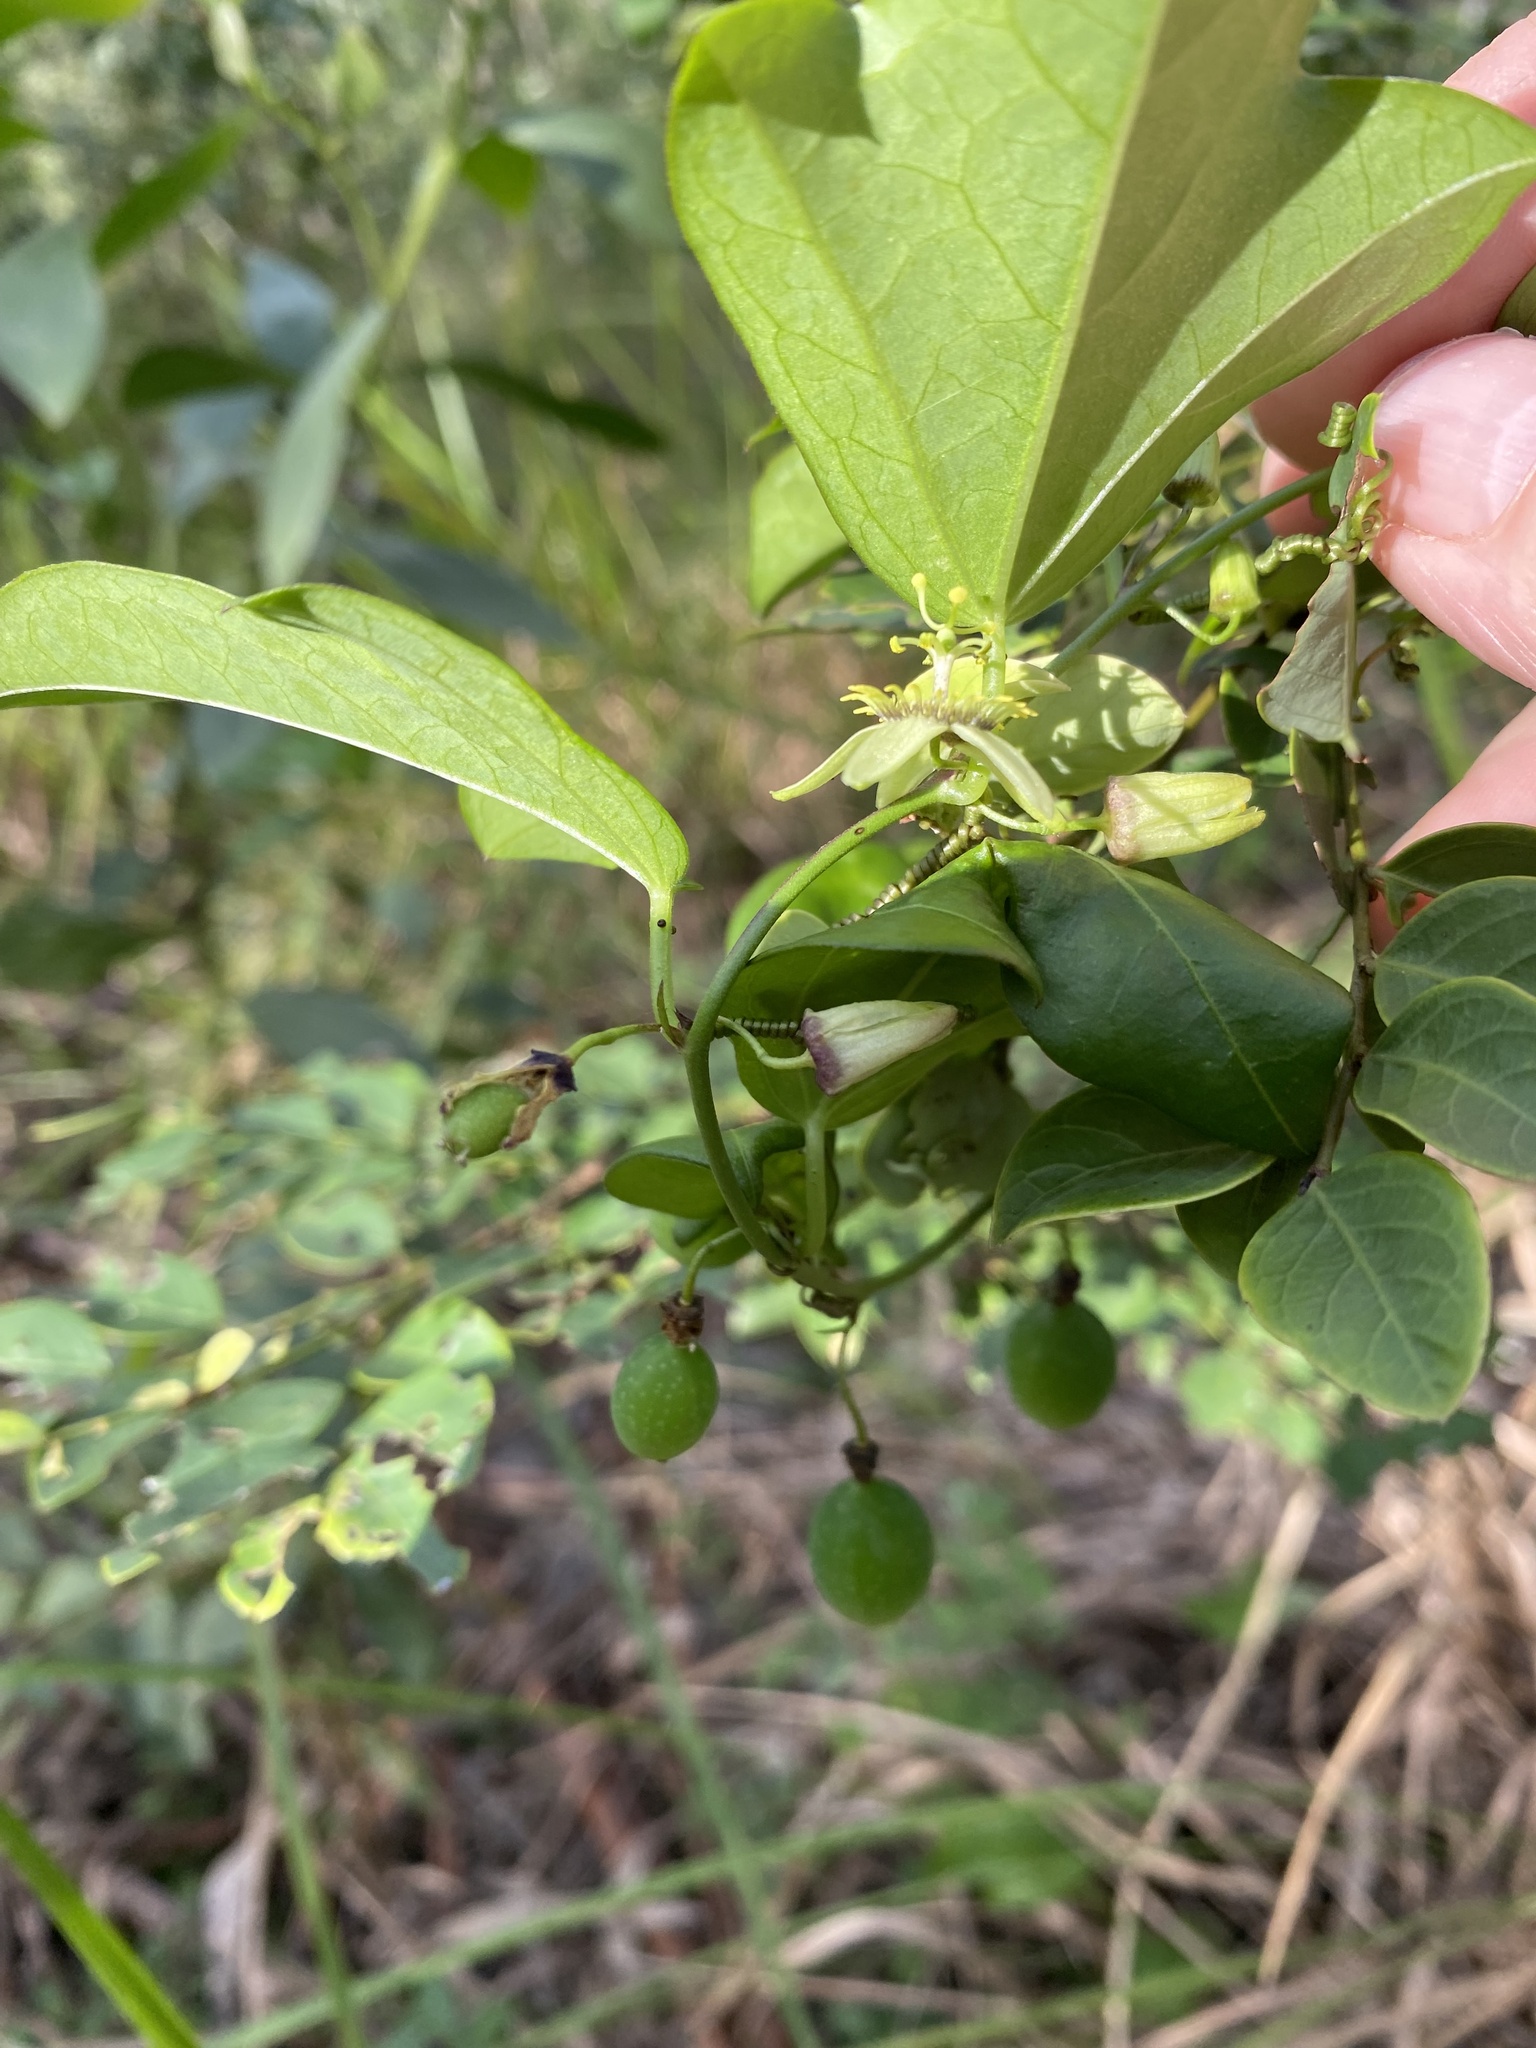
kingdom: Plantae
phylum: Tracheophyta
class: Magnoliopsida
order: Malpighiales
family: Passifloraceae
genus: Passiflora
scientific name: Passiflora suberosa
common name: Wild passionfruit
